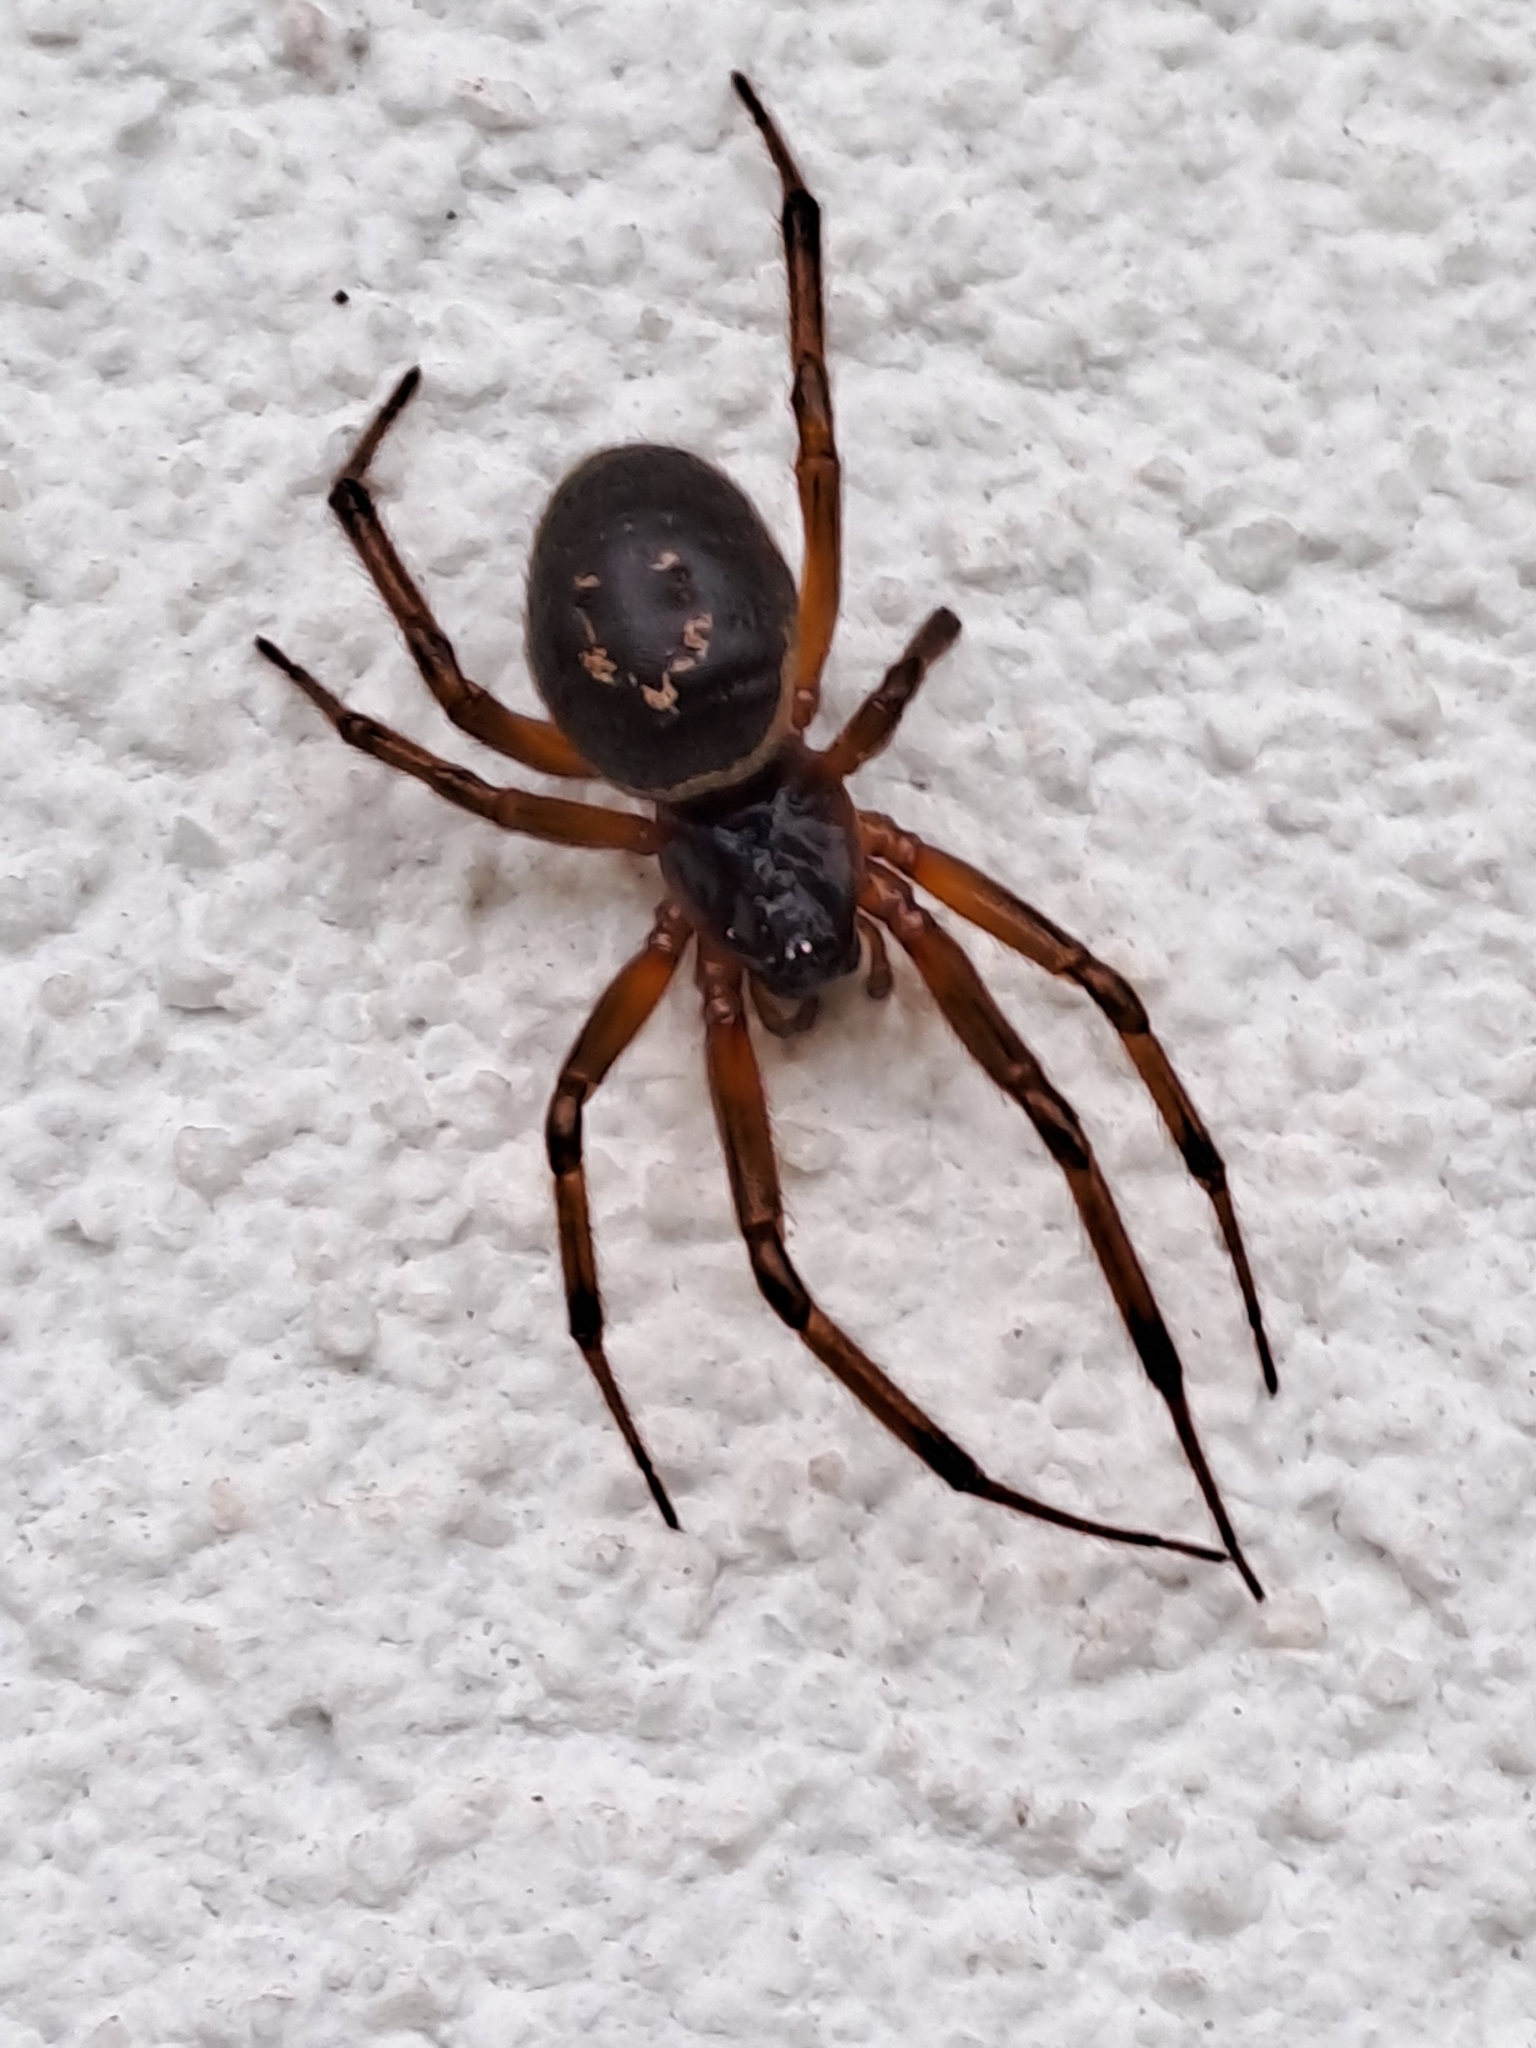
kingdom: Animalia
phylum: Arthropoda
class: Arachnida
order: Araneae
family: Theridiidae
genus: Steatoda
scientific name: Steatoda nobilis
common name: Cobweb weaver
